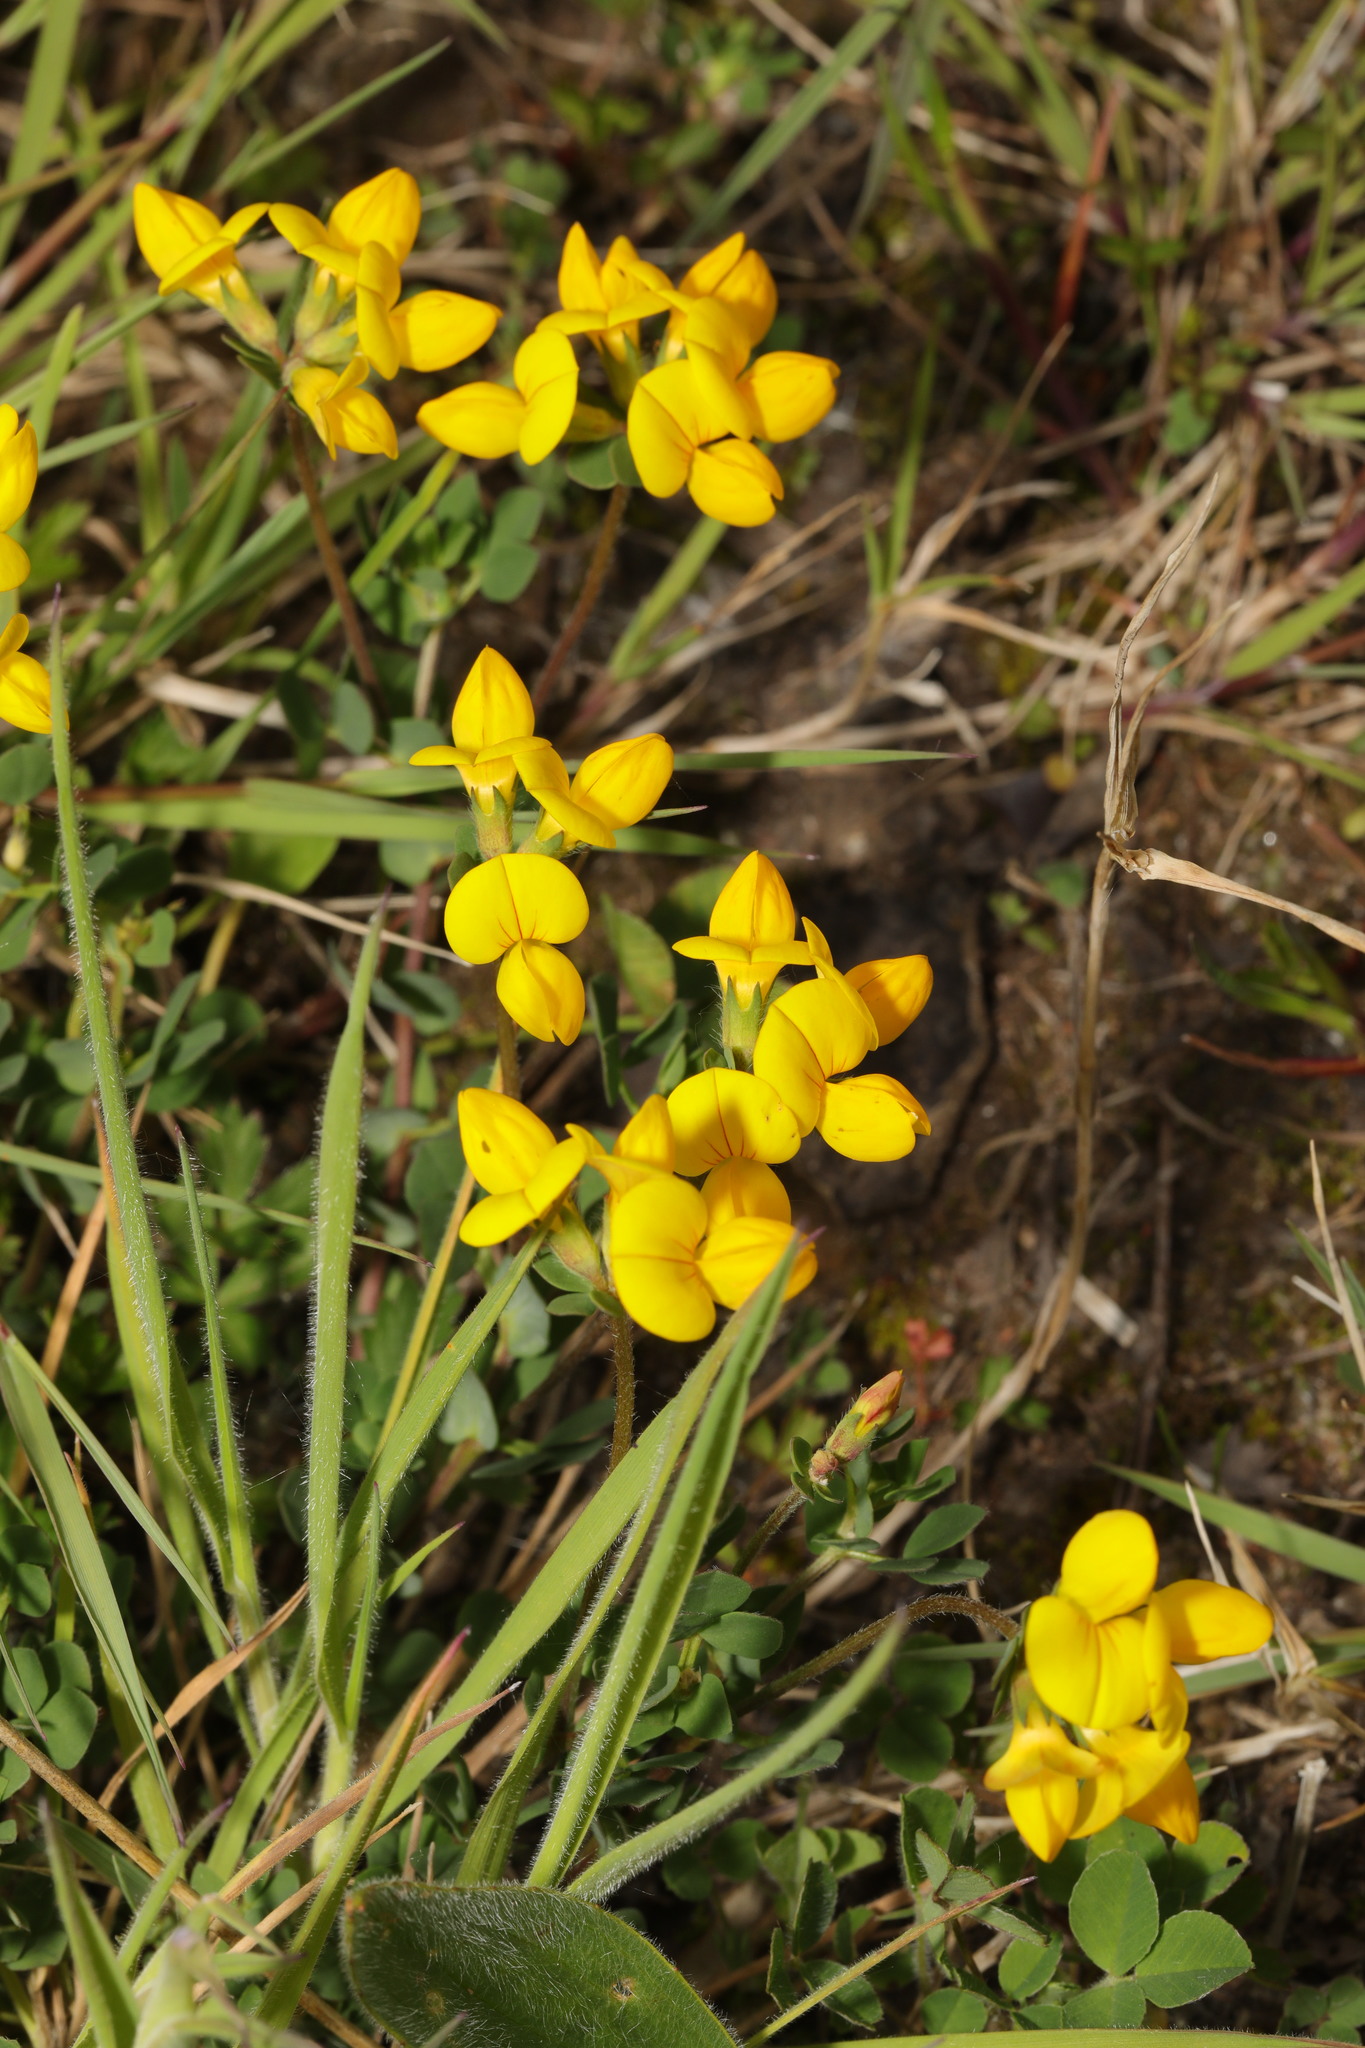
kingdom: Plantae
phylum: Tracheophyta
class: Magnoliopsida
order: Fabales
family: Fabaceae
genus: Lotus
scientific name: Lotus corniculatus
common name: Common bird's-foot-trefoil
